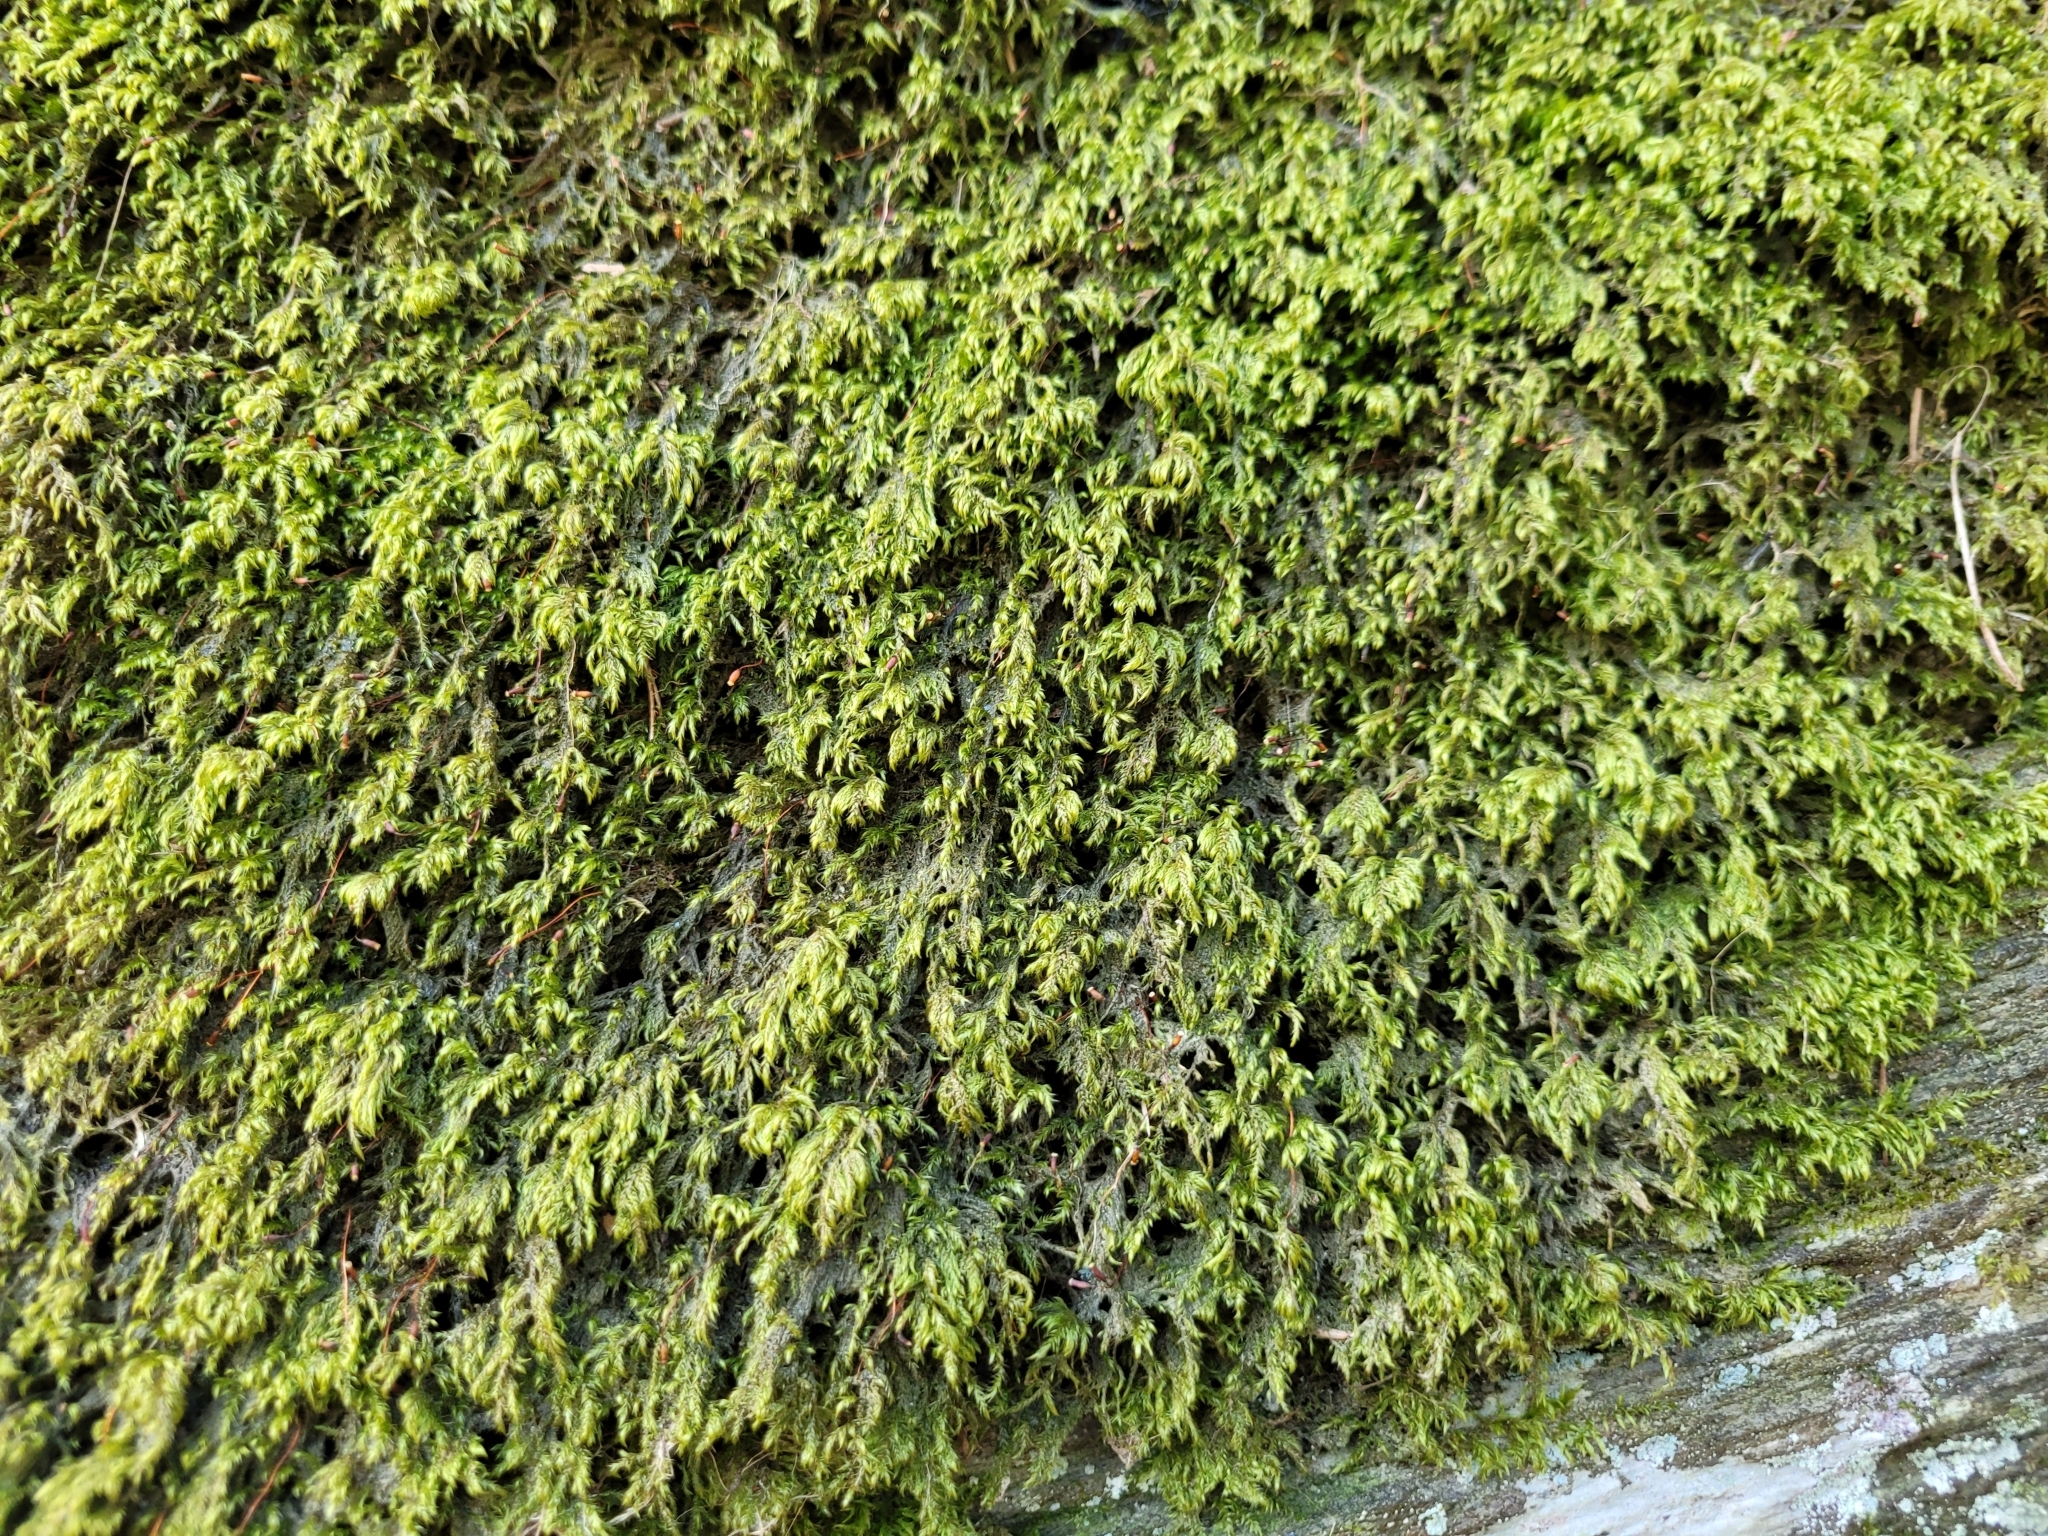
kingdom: Plantae
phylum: Bryophyta
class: Bryopsida
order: Hypnales
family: Lembophyllaceae
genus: Pseudisothecium
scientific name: Pseudisothecium myosuroides
